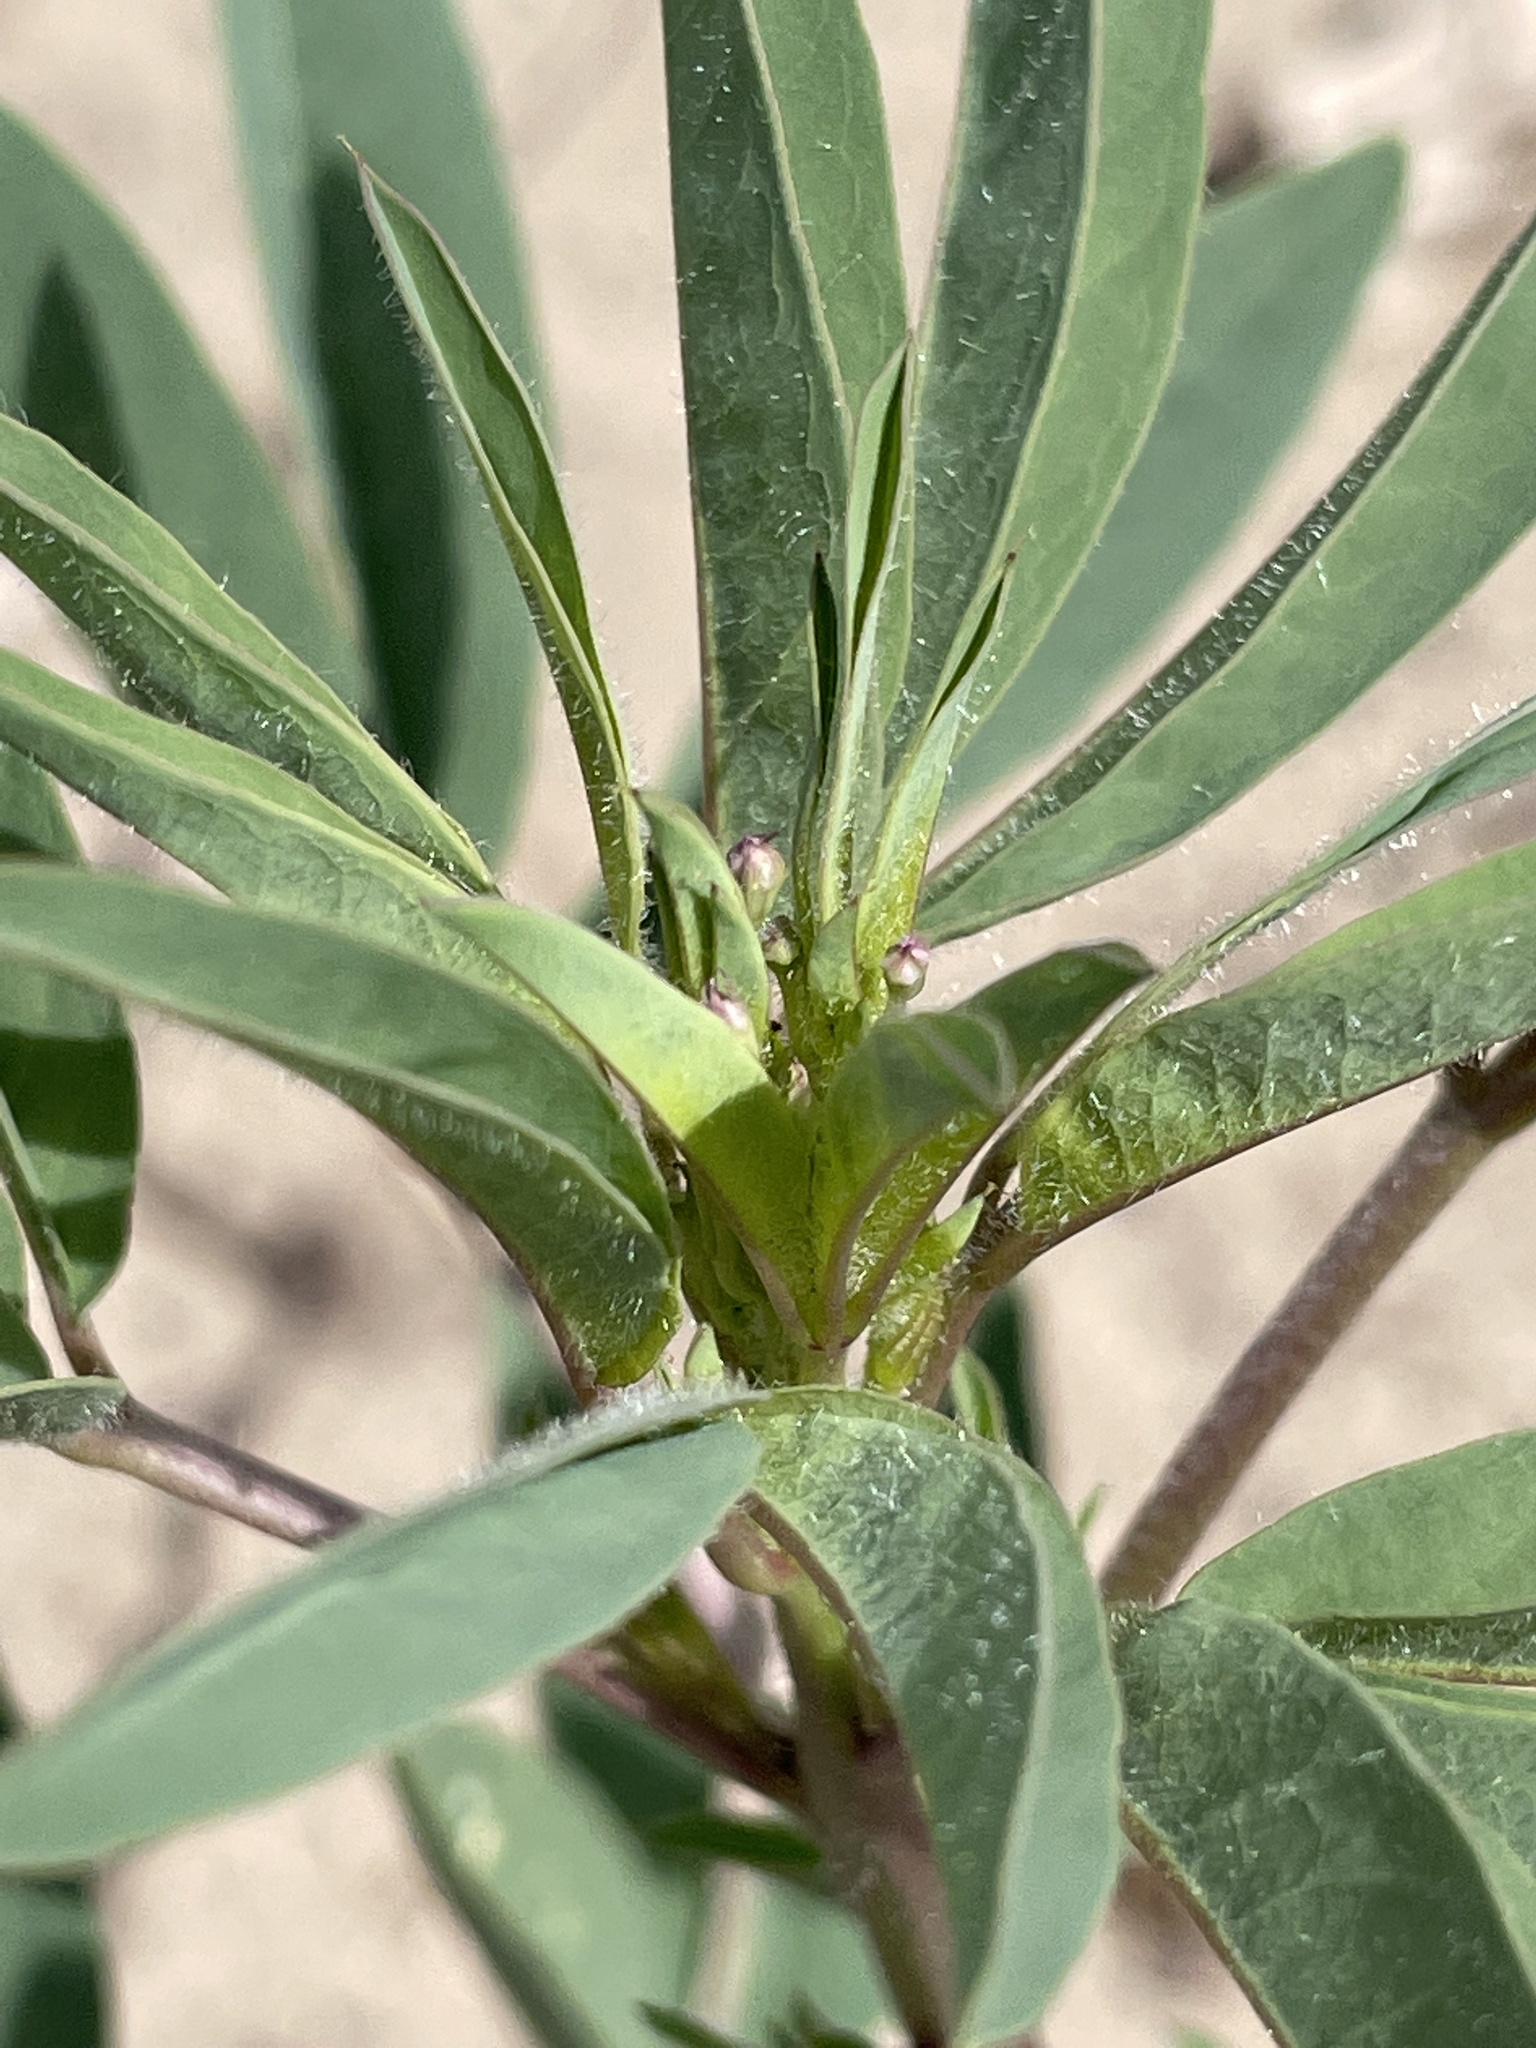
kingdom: Plantae
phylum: Tracheophyta
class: Magnoliopsida
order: Brassicales
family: Cleomaceae
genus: Cleomella
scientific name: Cleomella serrulata
